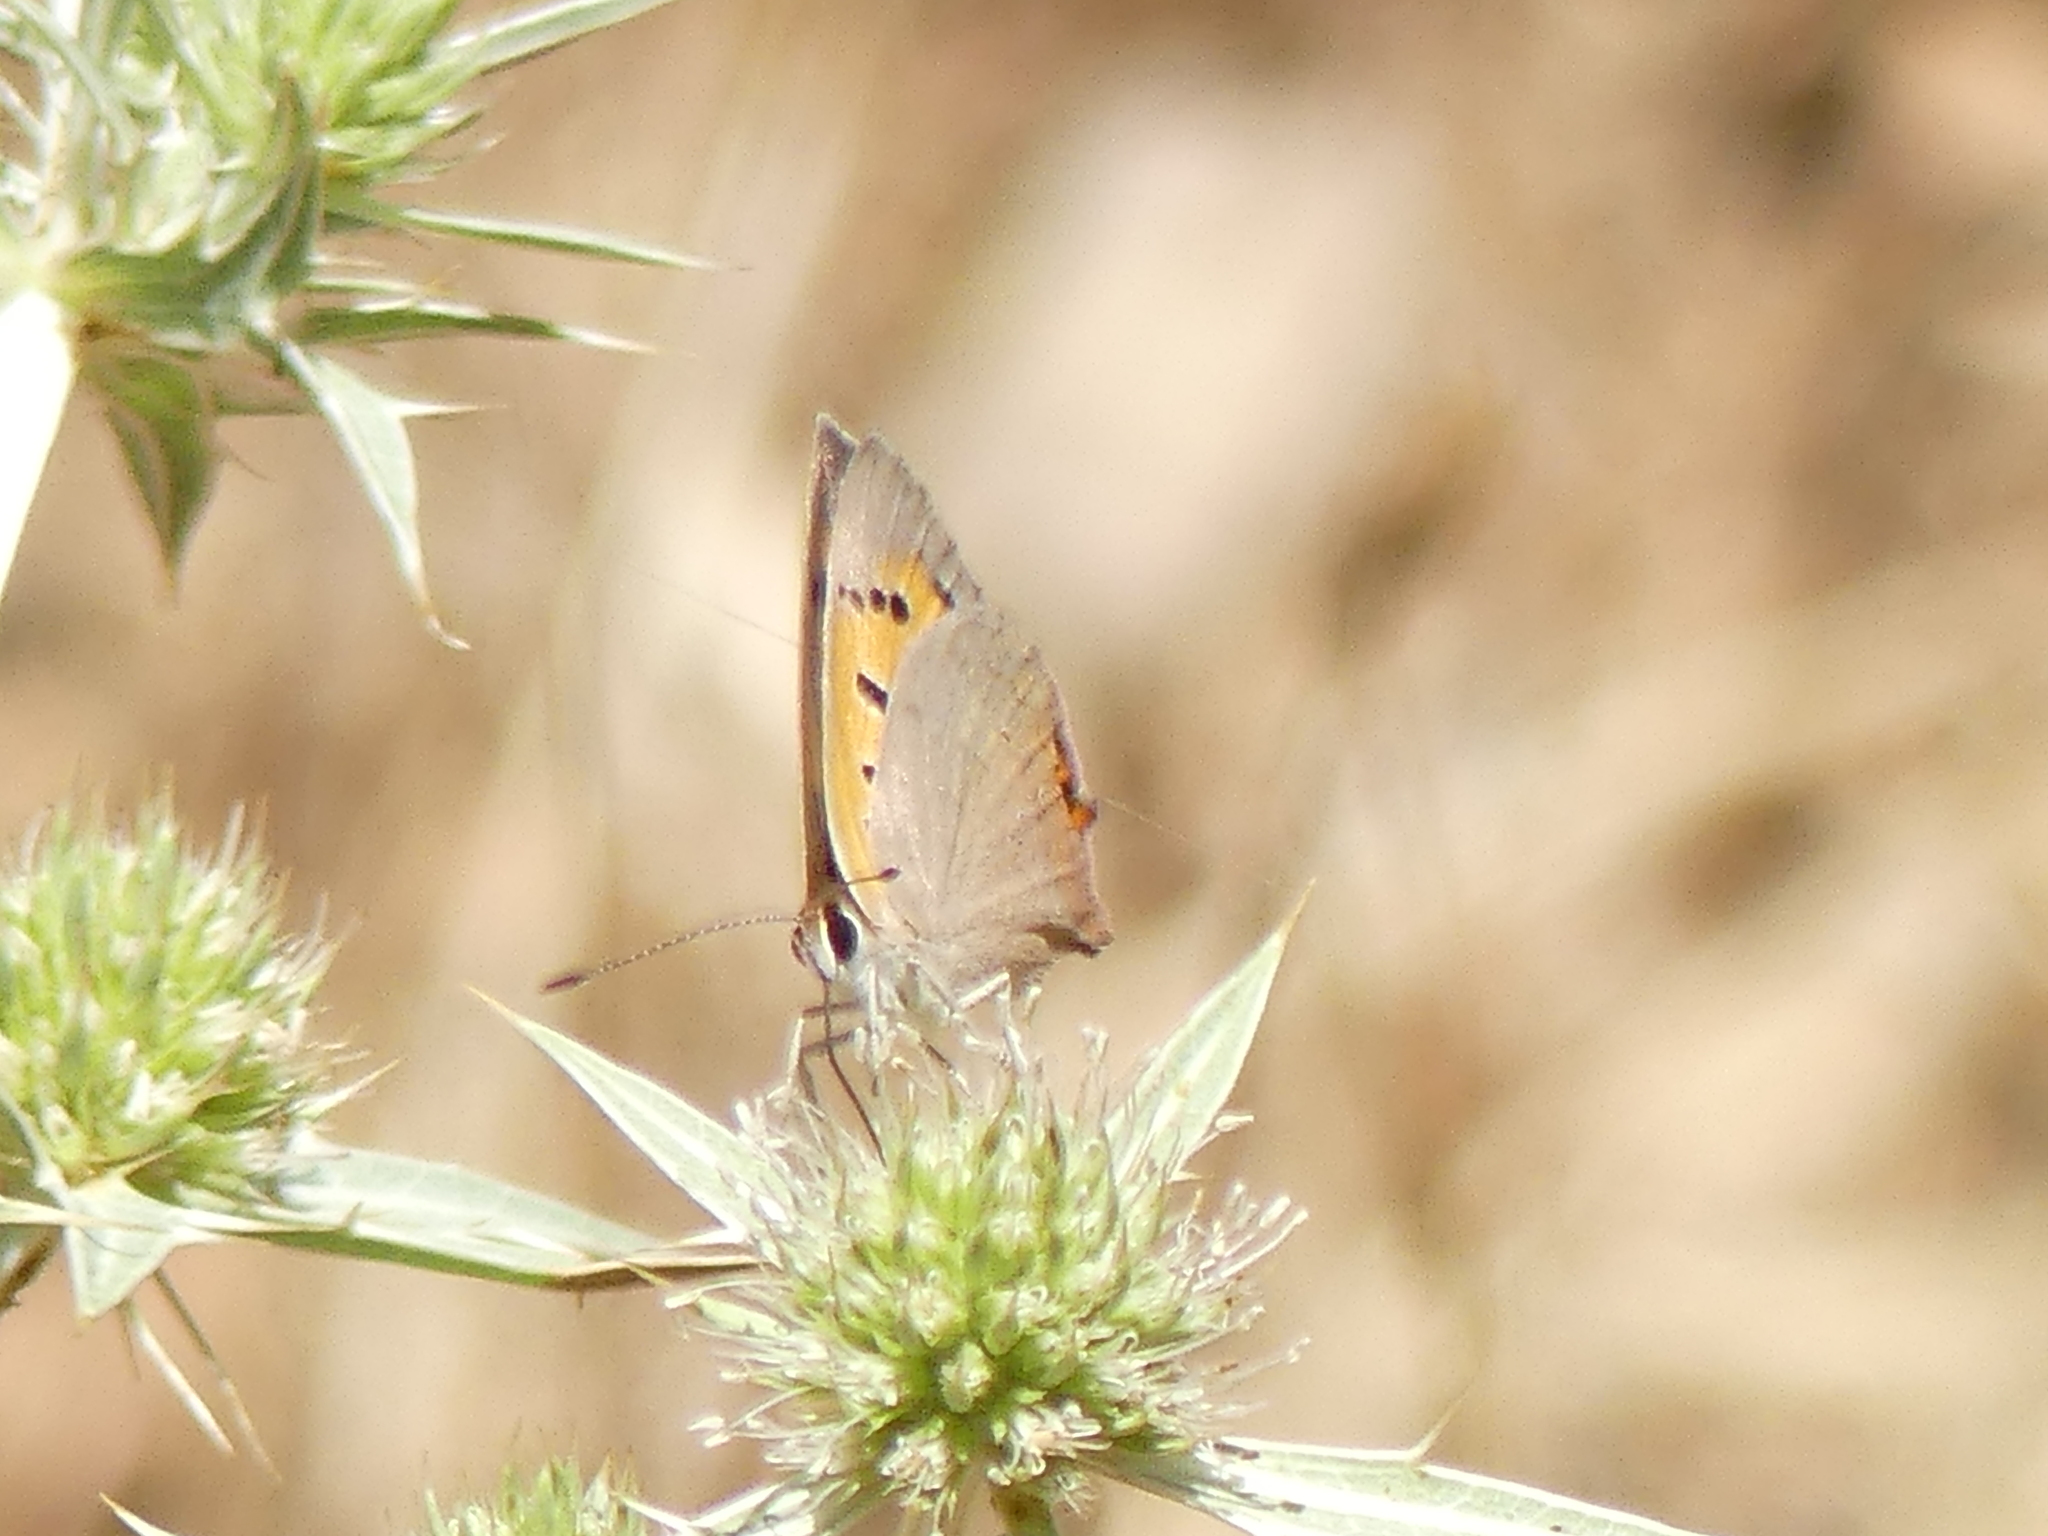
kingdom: Animalia
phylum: Arthropoda
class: Insecta
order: Lepidoptera
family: Lycaenidae
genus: Lycaena
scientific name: Lycaena phlaeas
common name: Small copper
